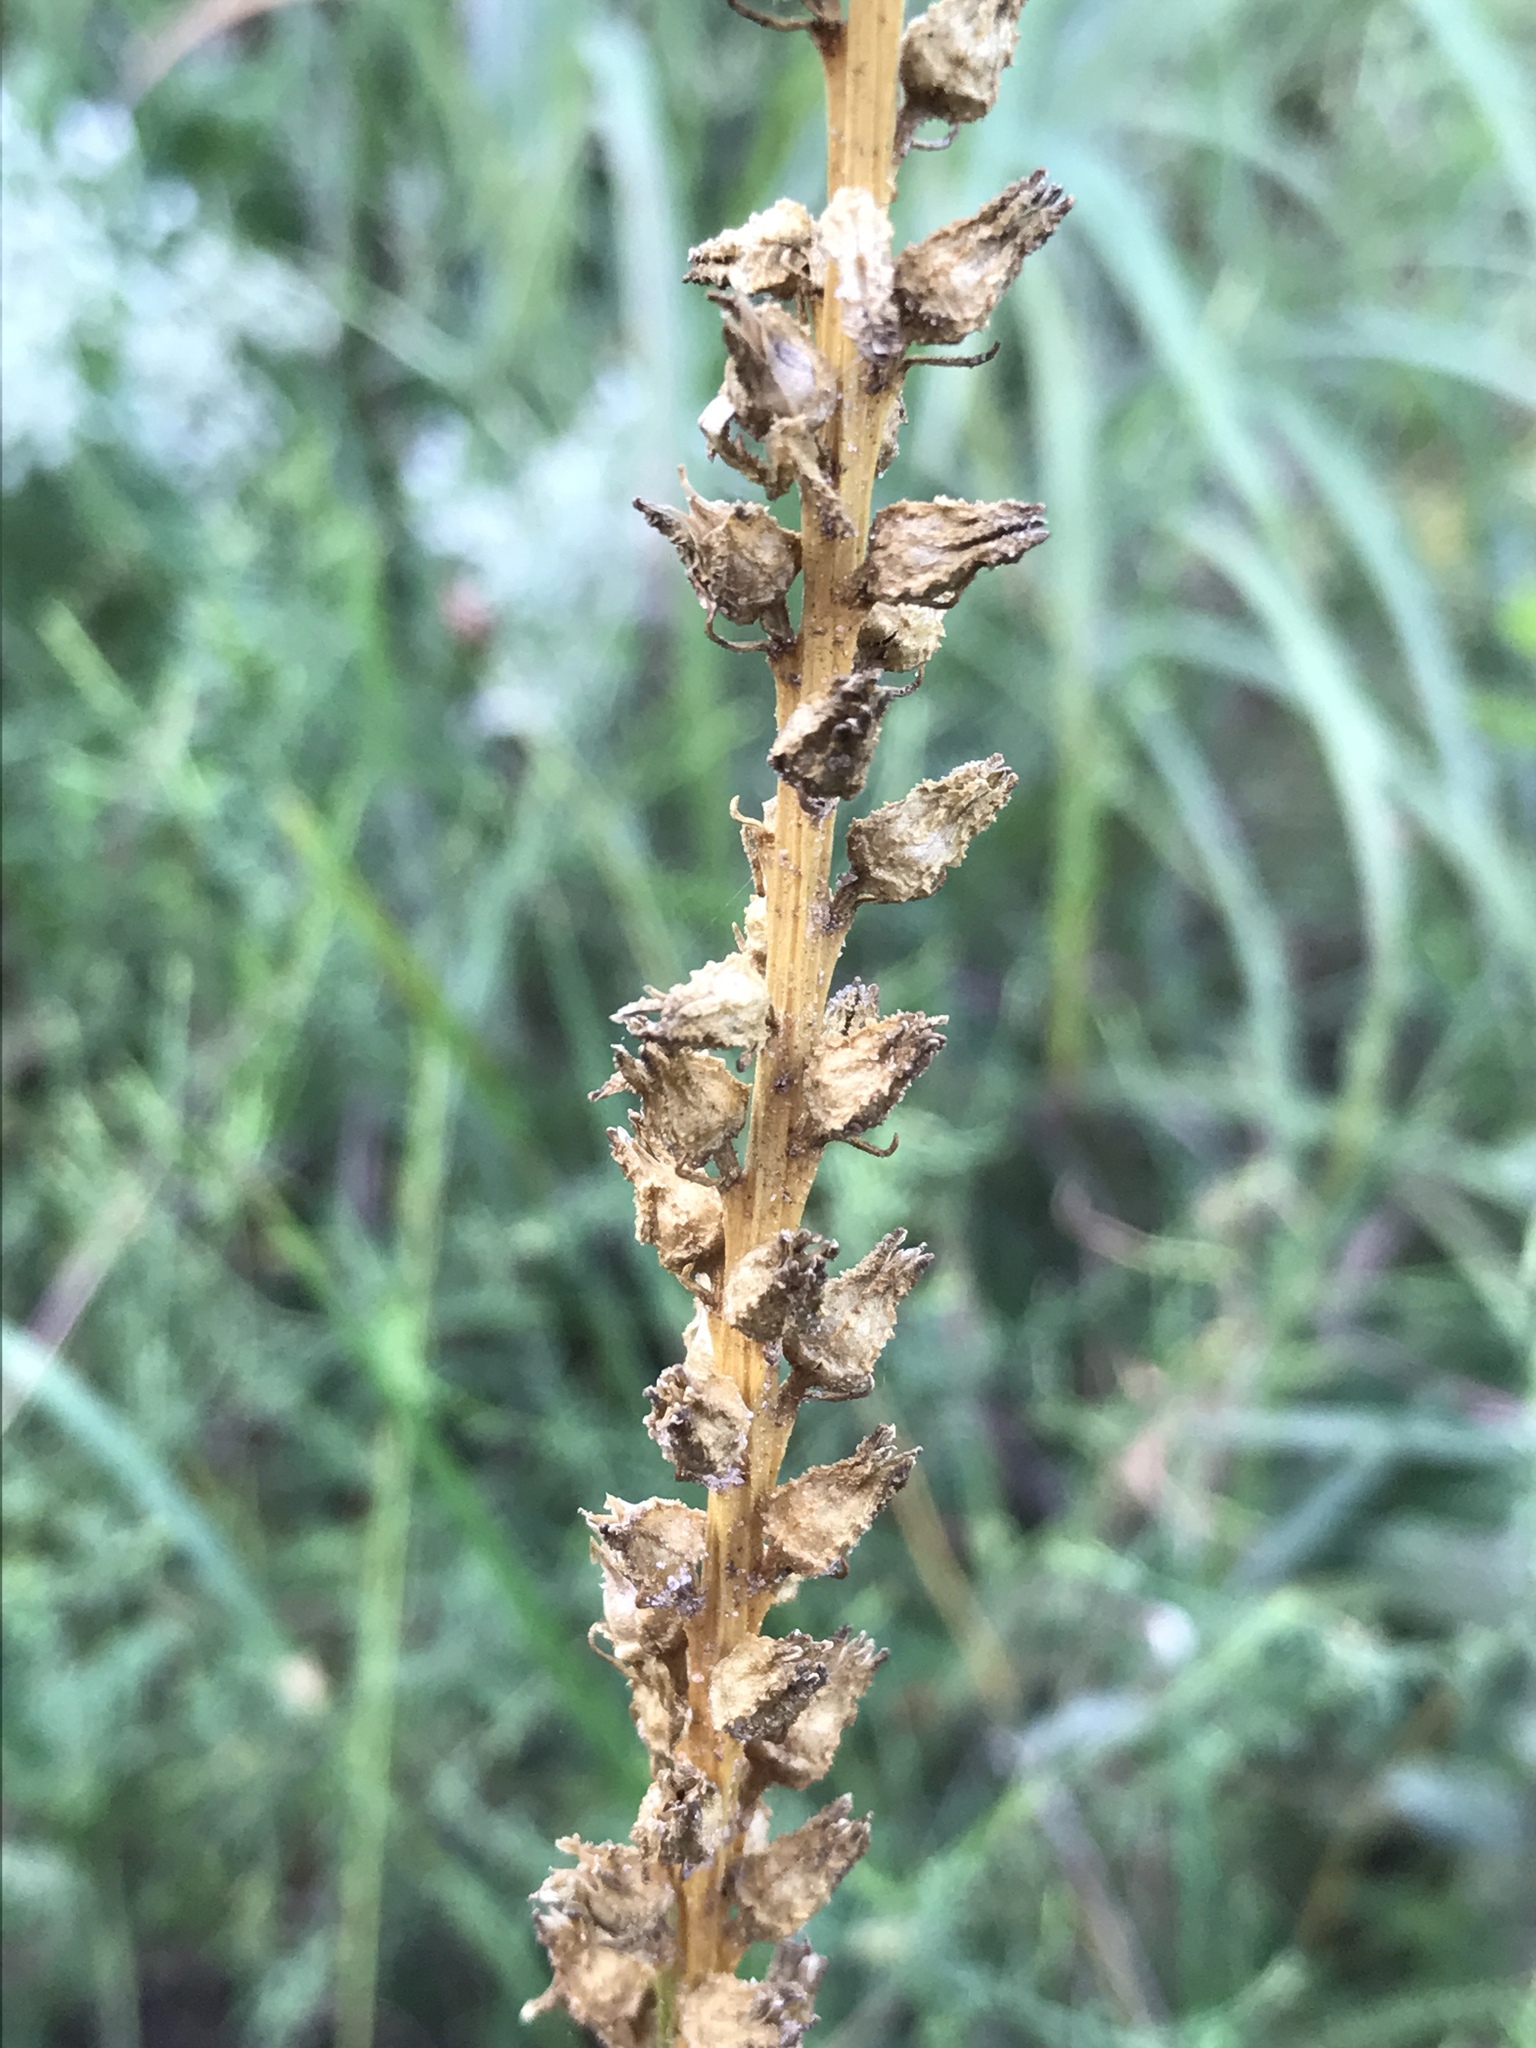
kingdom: Plantae
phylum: Tracheophyta
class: Liliopsida
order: Dioscoreales
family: Nartheciaceae
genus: Aletris
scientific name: Aletris aurea
